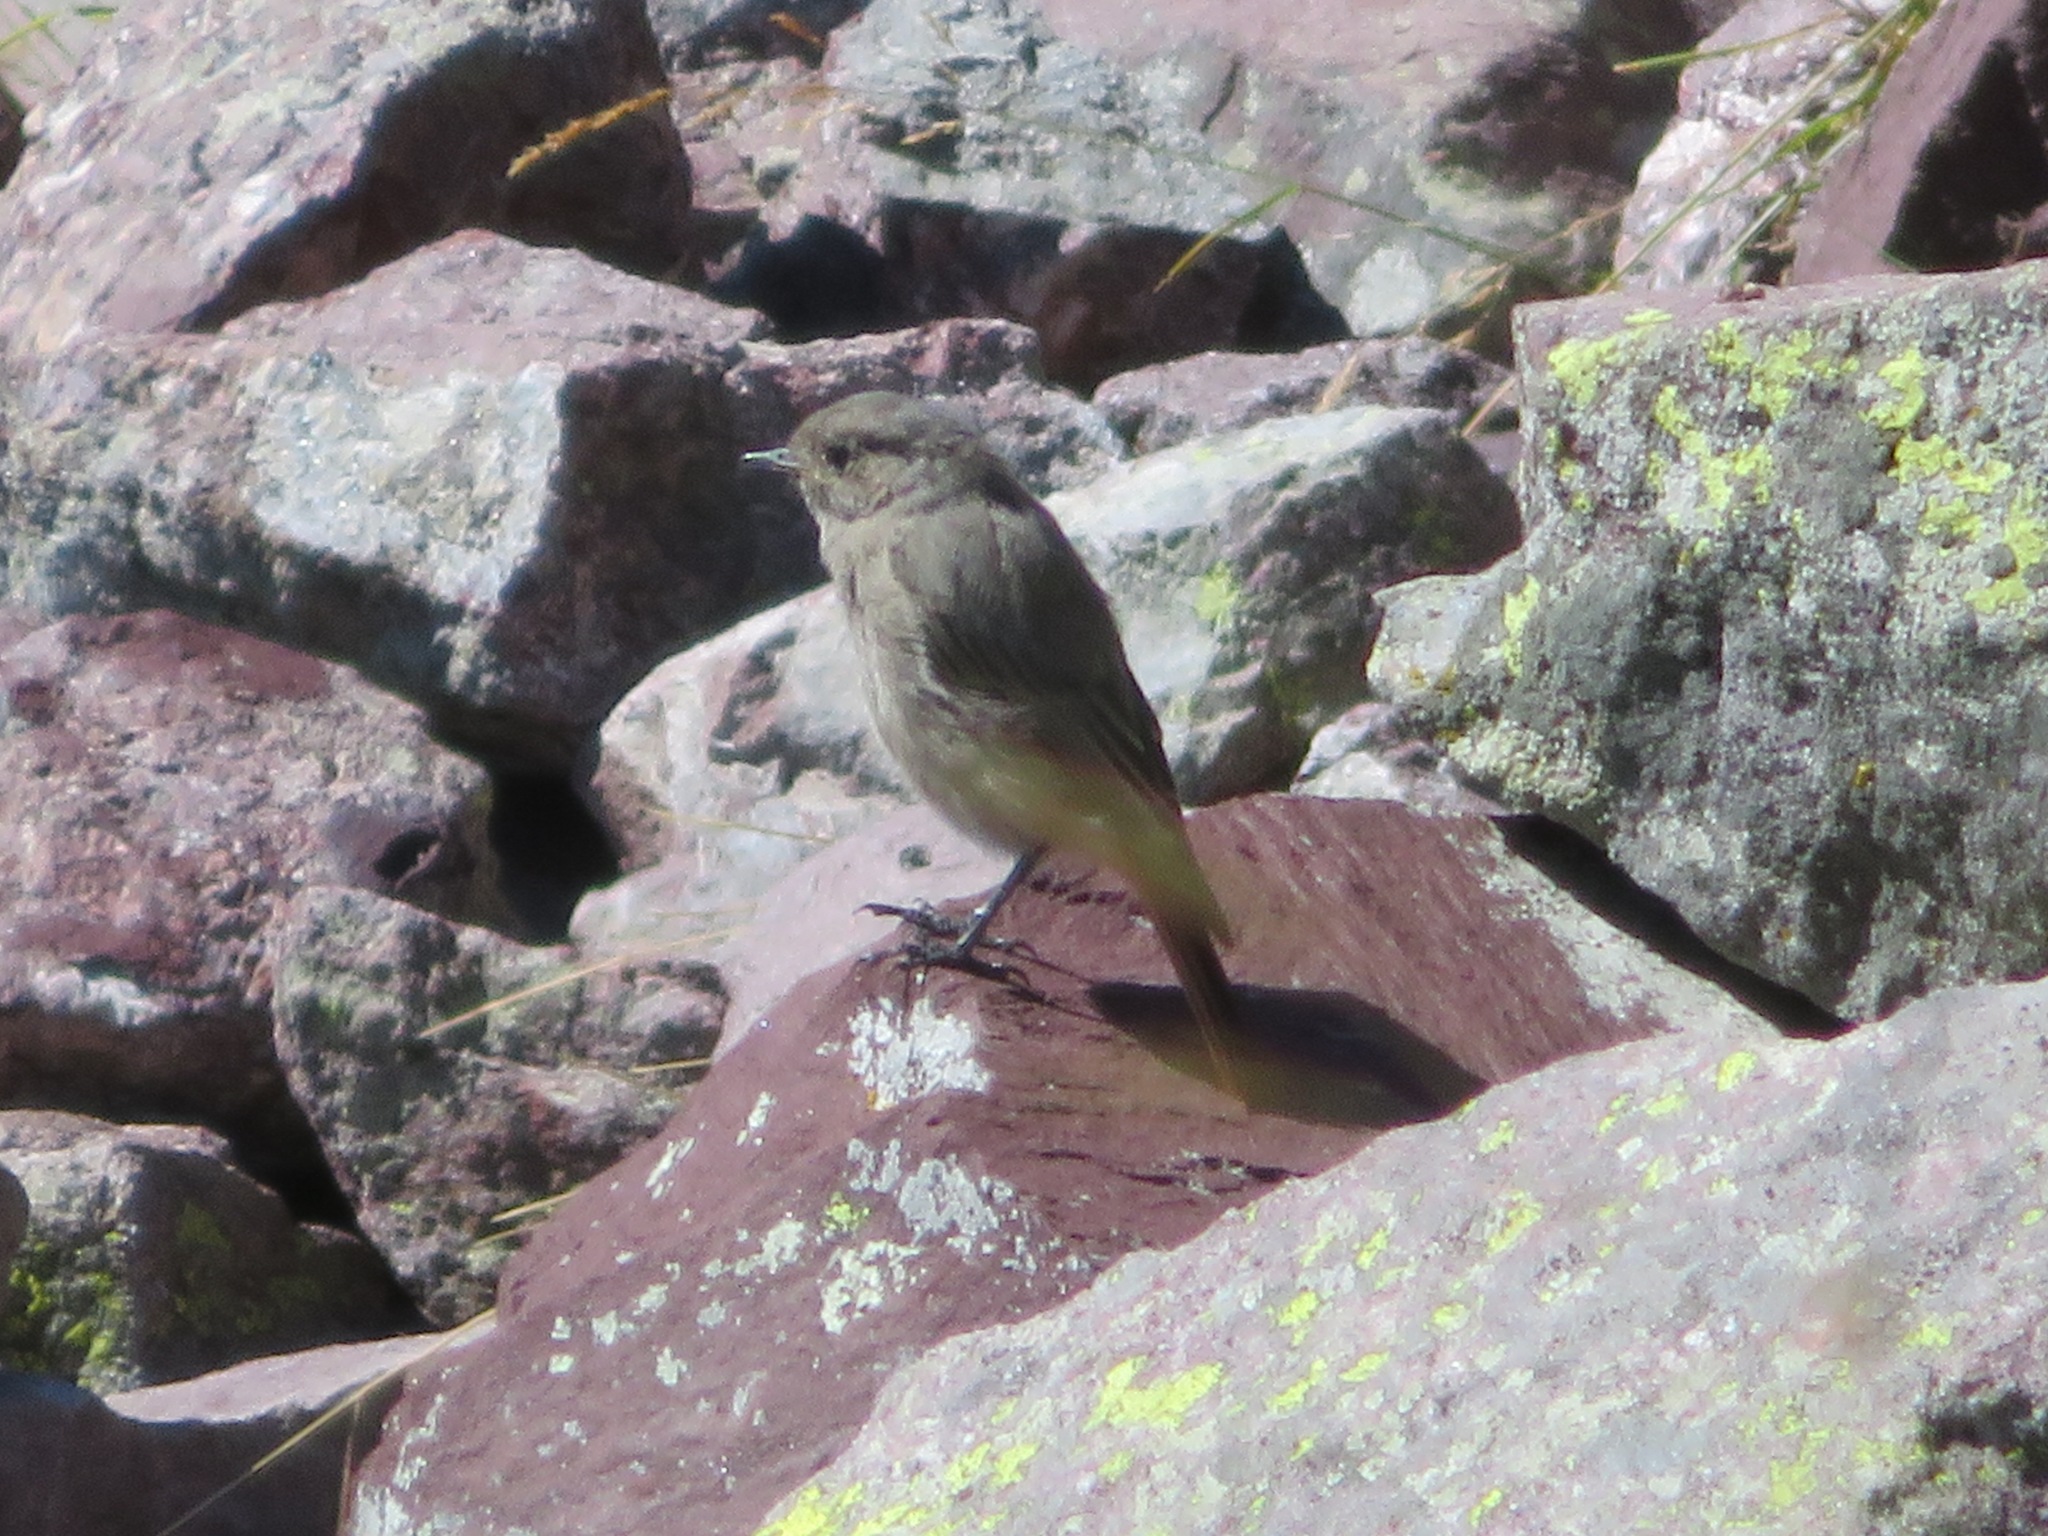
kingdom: Animalia
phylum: Chordata
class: Aves
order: Passeriformes
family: Muscicapidae
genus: Phoenicurus
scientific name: Phoenicurus ochruros
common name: Black redstart
